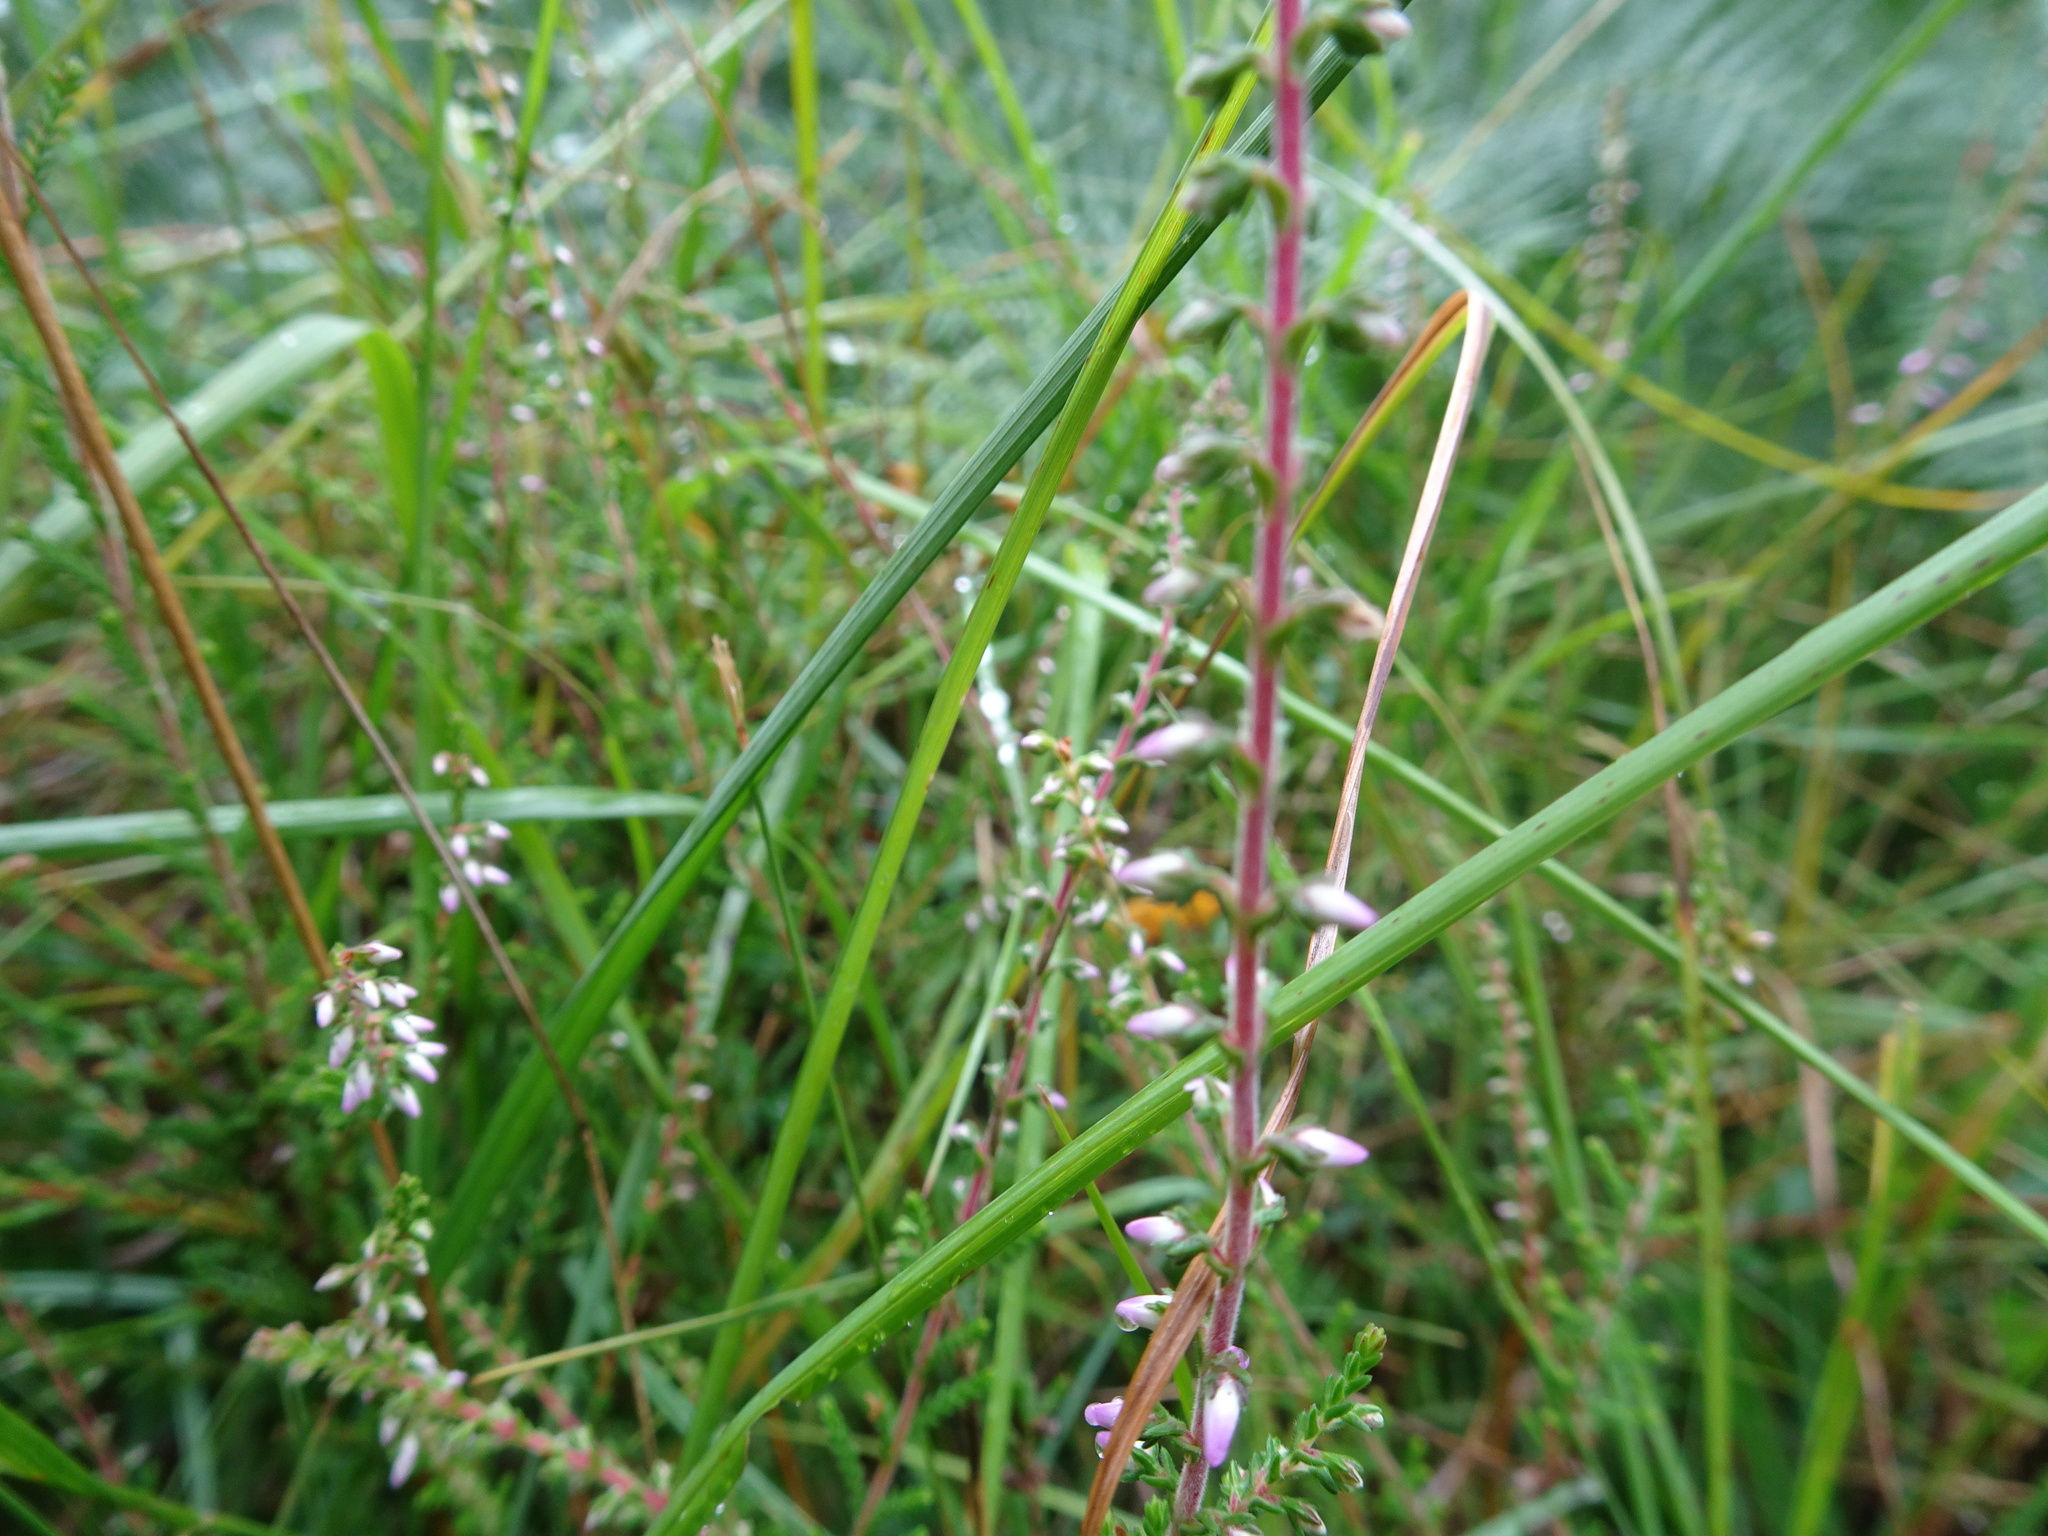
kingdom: Plantae
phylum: Tracheophyta
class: Magnoliopsida
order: Ericales
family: Ericaceae
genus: Calluna
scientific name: Calluna vulgaris
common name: Heather
